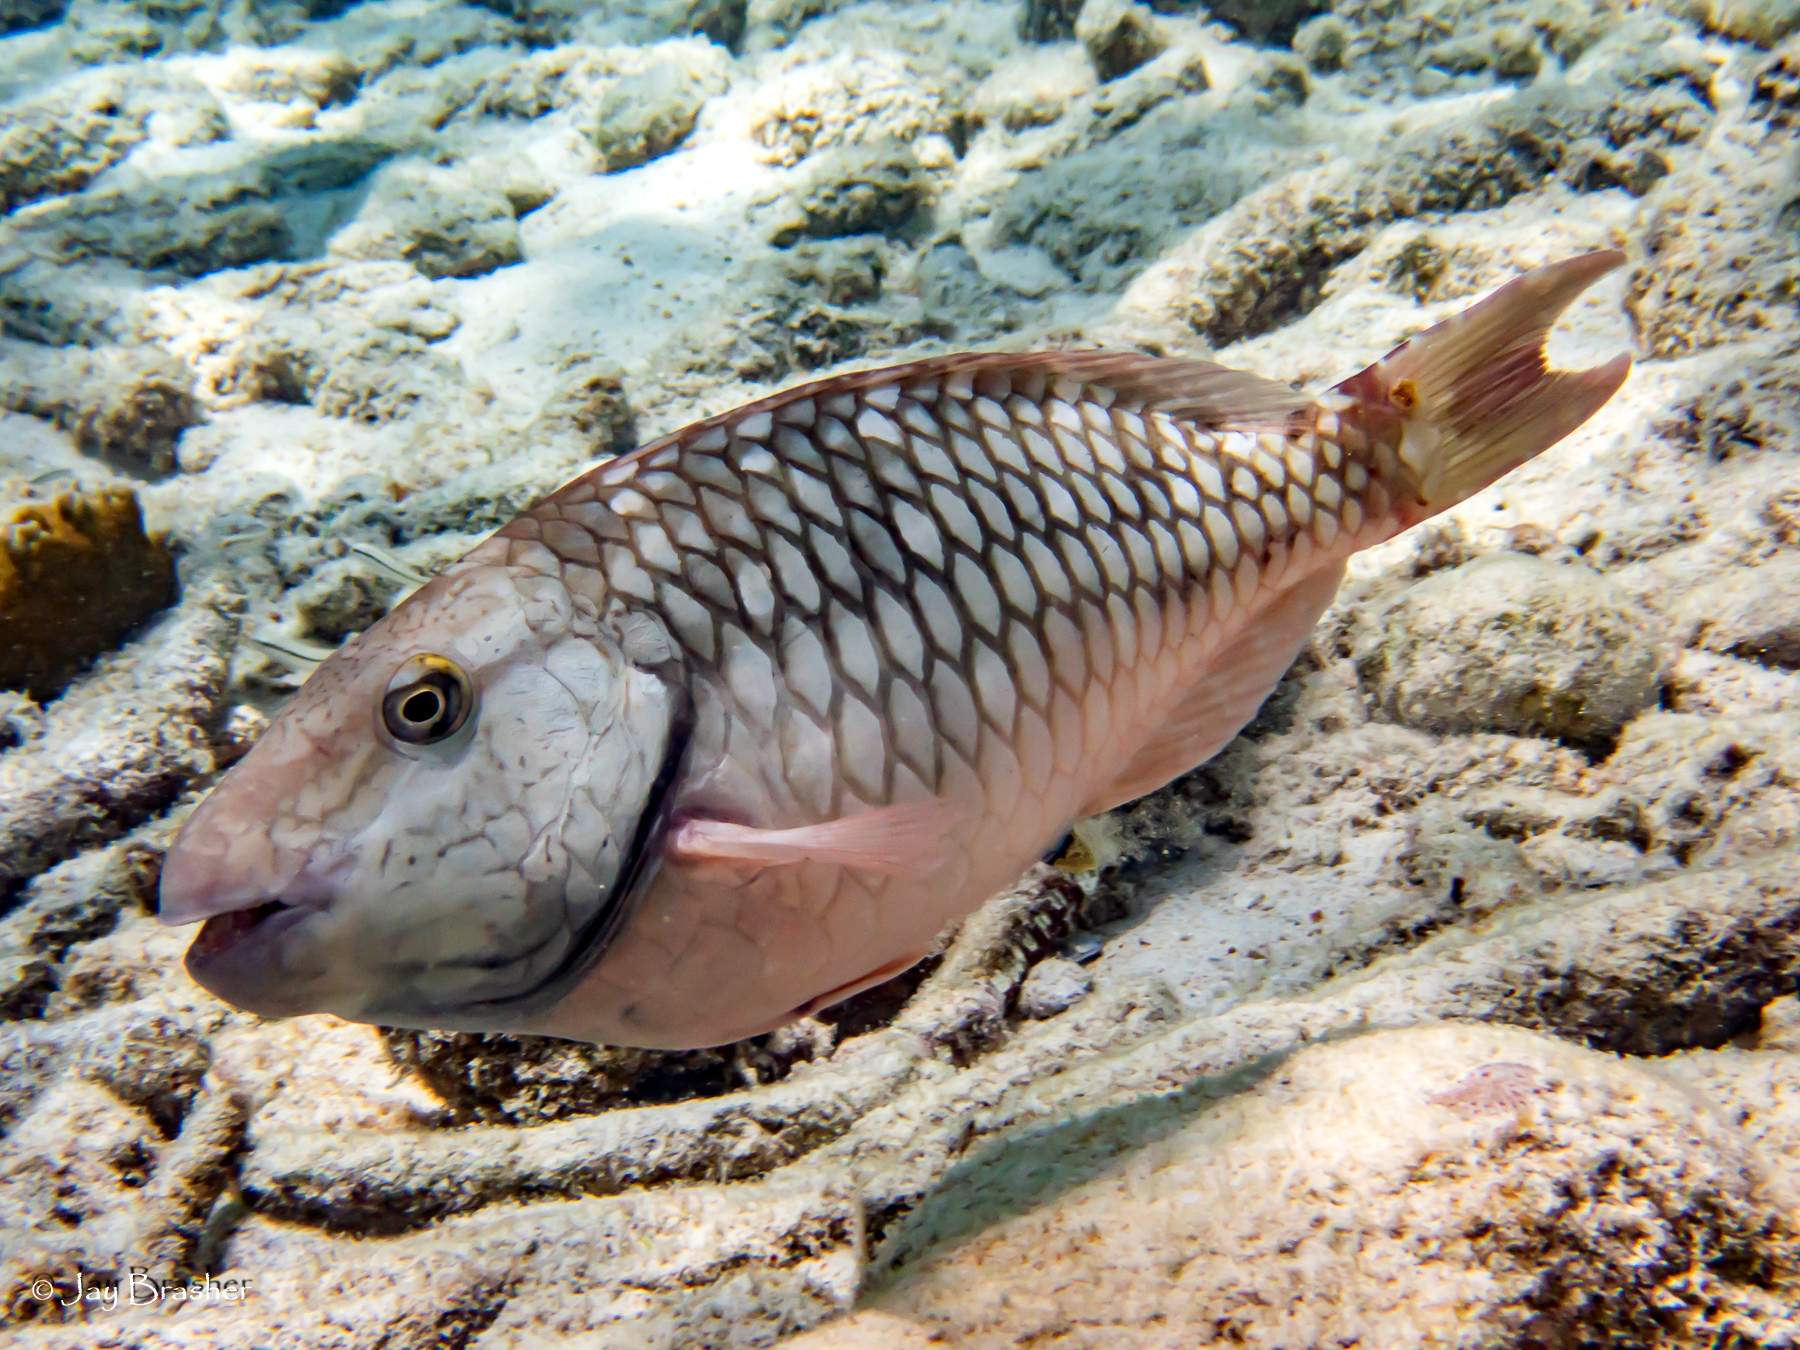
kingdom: Animalia
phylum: Chordata
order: Perciformes
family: Scaridae
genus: Sparisoma
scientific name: Sparisoma viride
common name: Stoplight parrotfish
